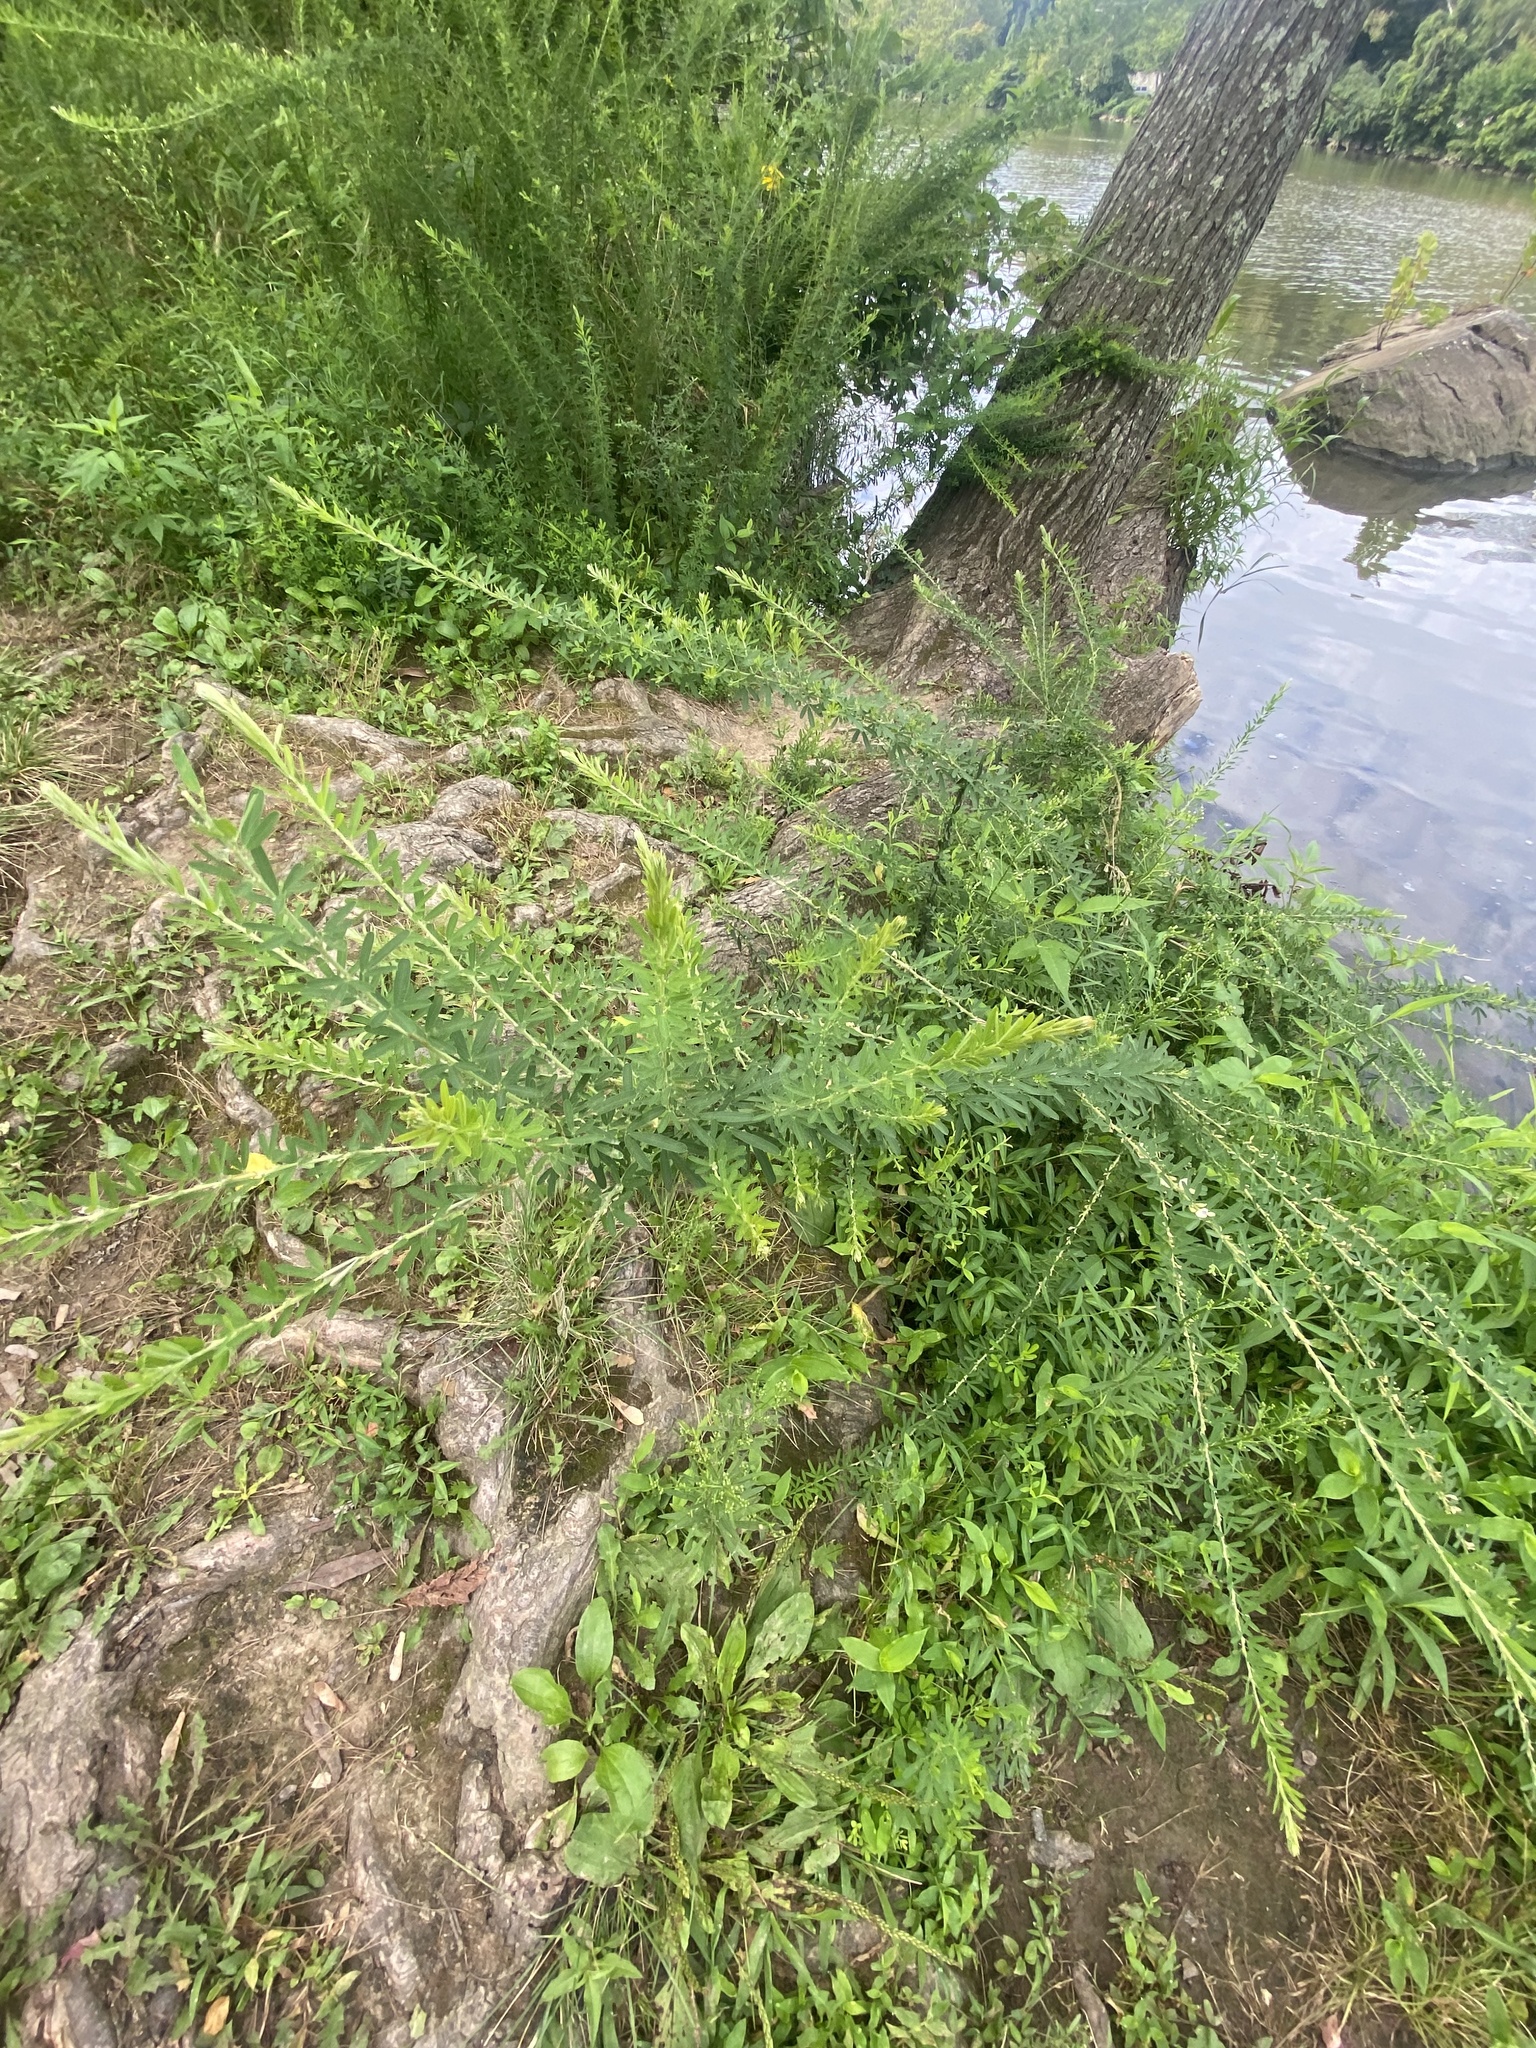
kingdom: Plantae
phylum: Tracheophyta
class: Magnoliopsida
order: Fabales
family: Fabaceae
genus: Lespedeza
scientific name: Lespedeza cuneata
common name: Chinese bush-clover
